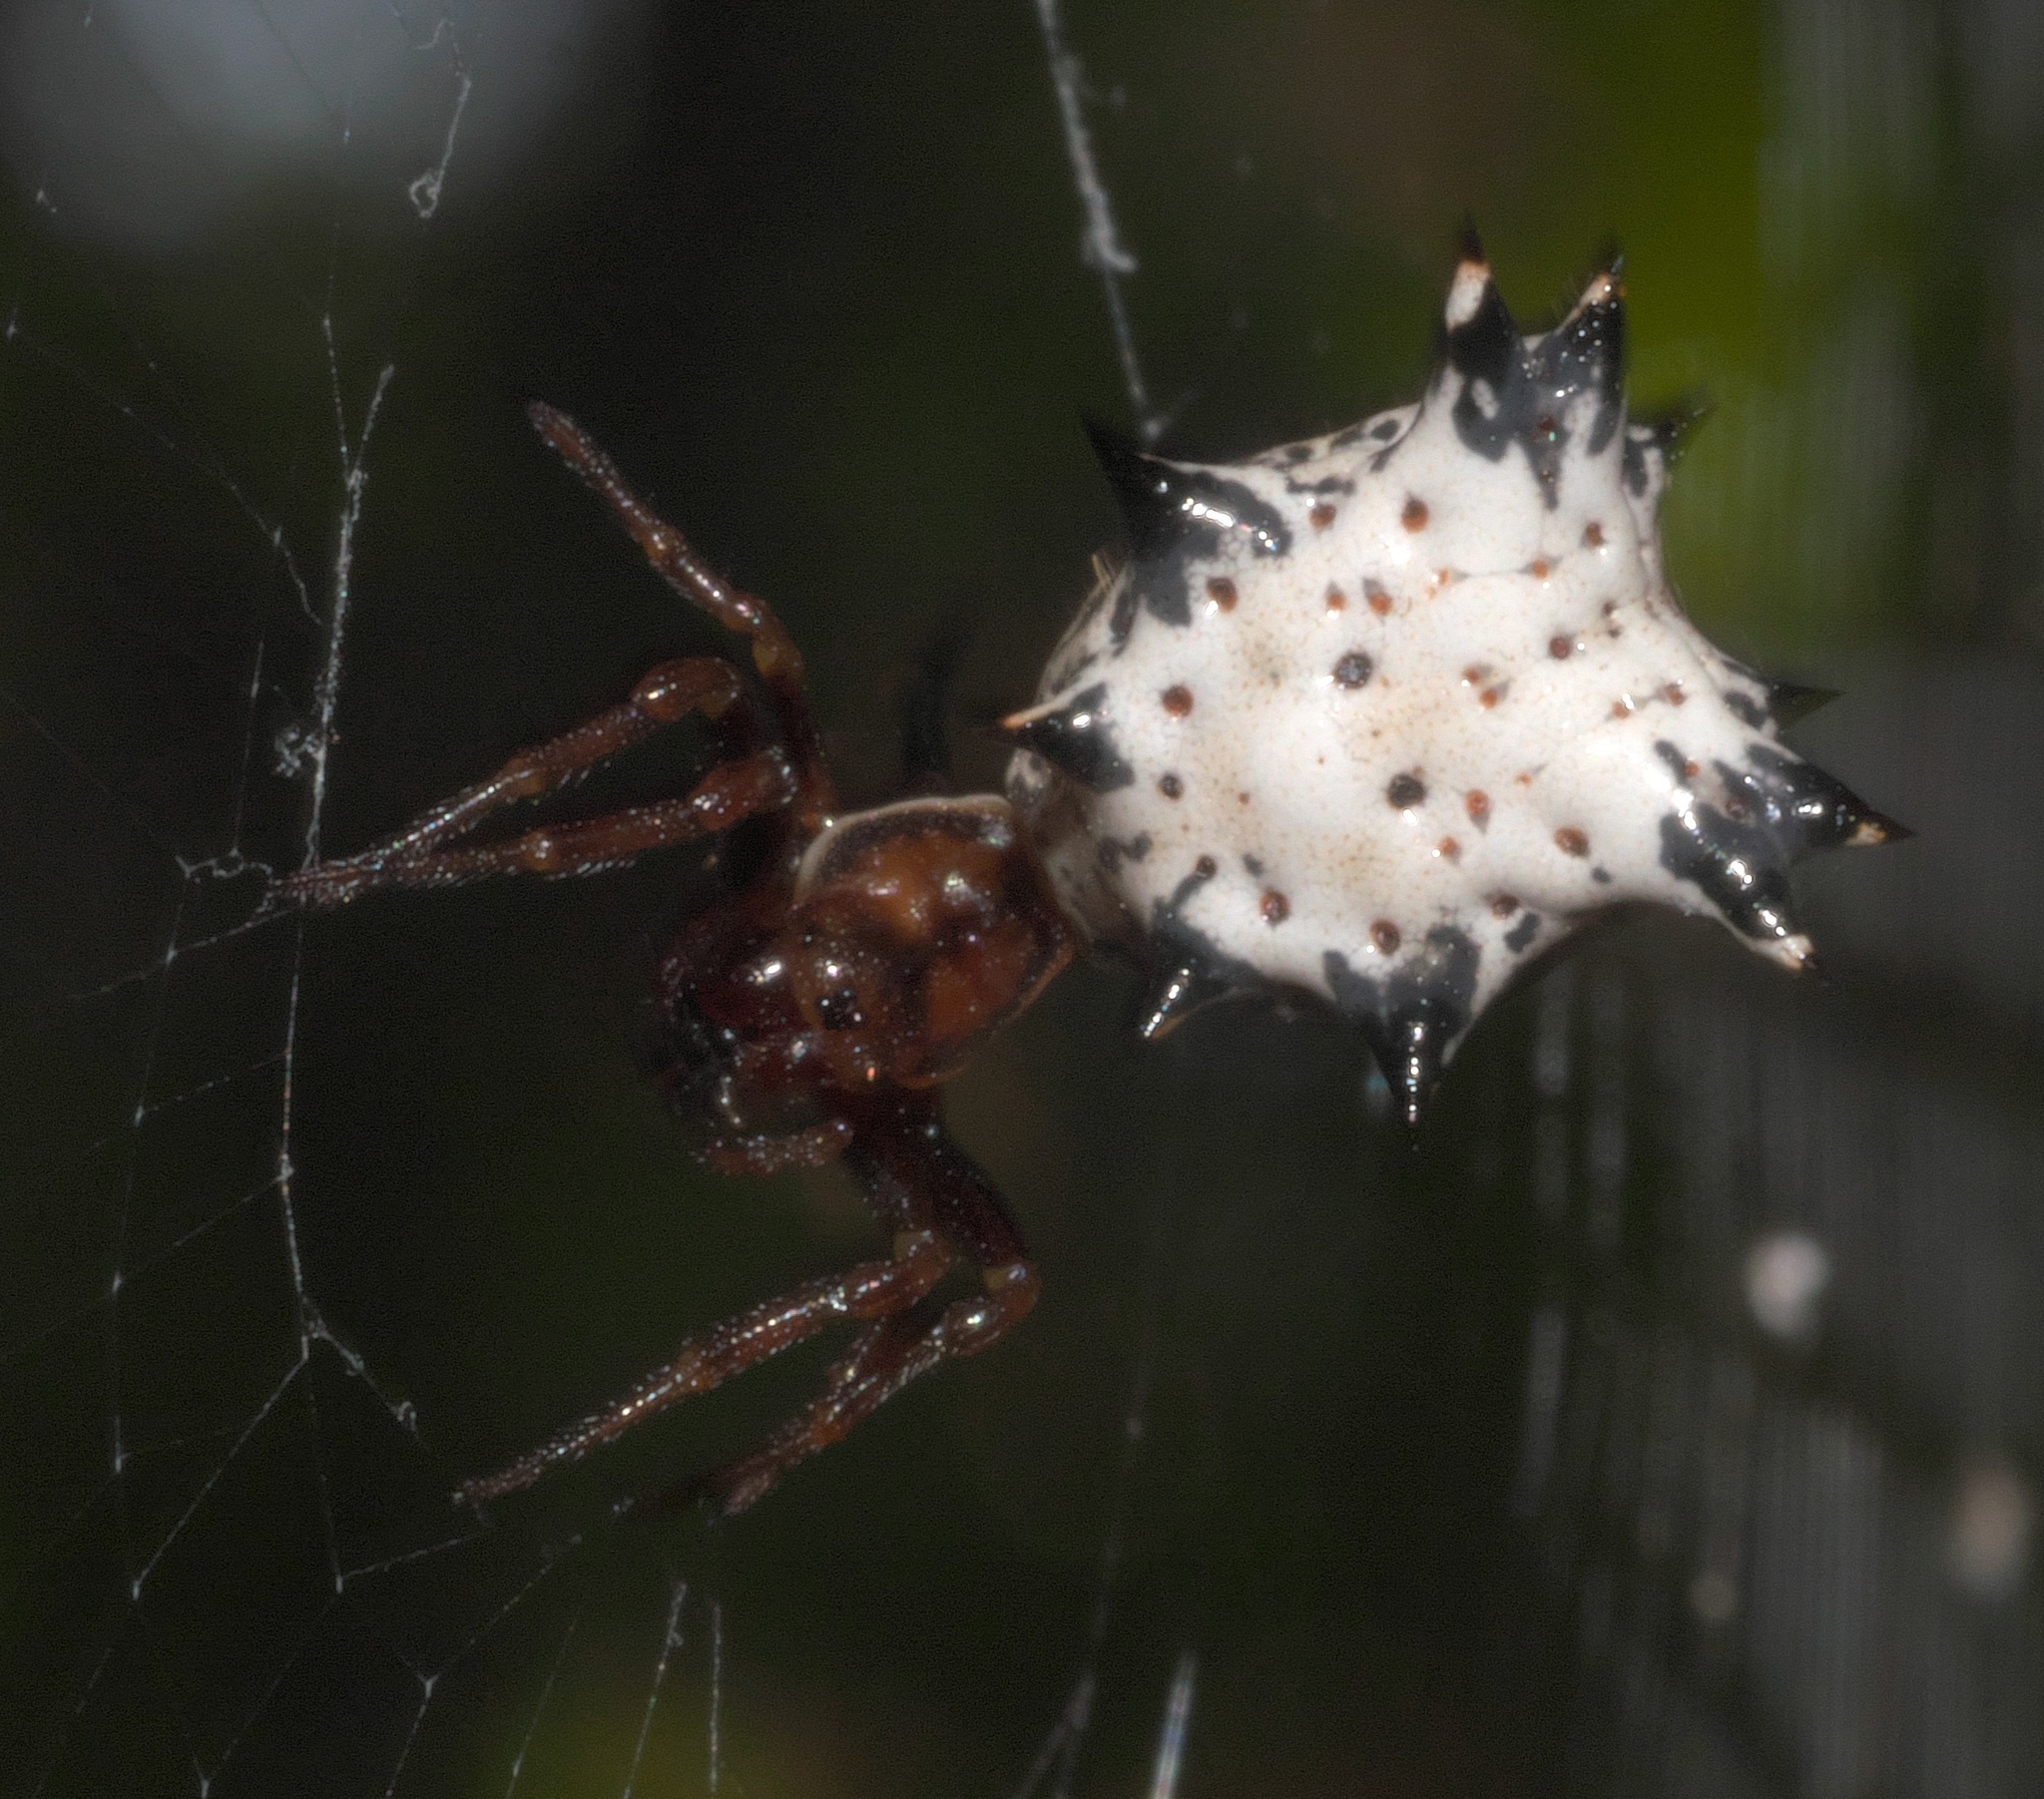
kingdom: Animalia
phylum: Arthropoda
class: Arachnida
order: Araneae
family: Araneidae
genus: Micrathena
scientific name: Micrathena gracilis
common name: Orb weavers
